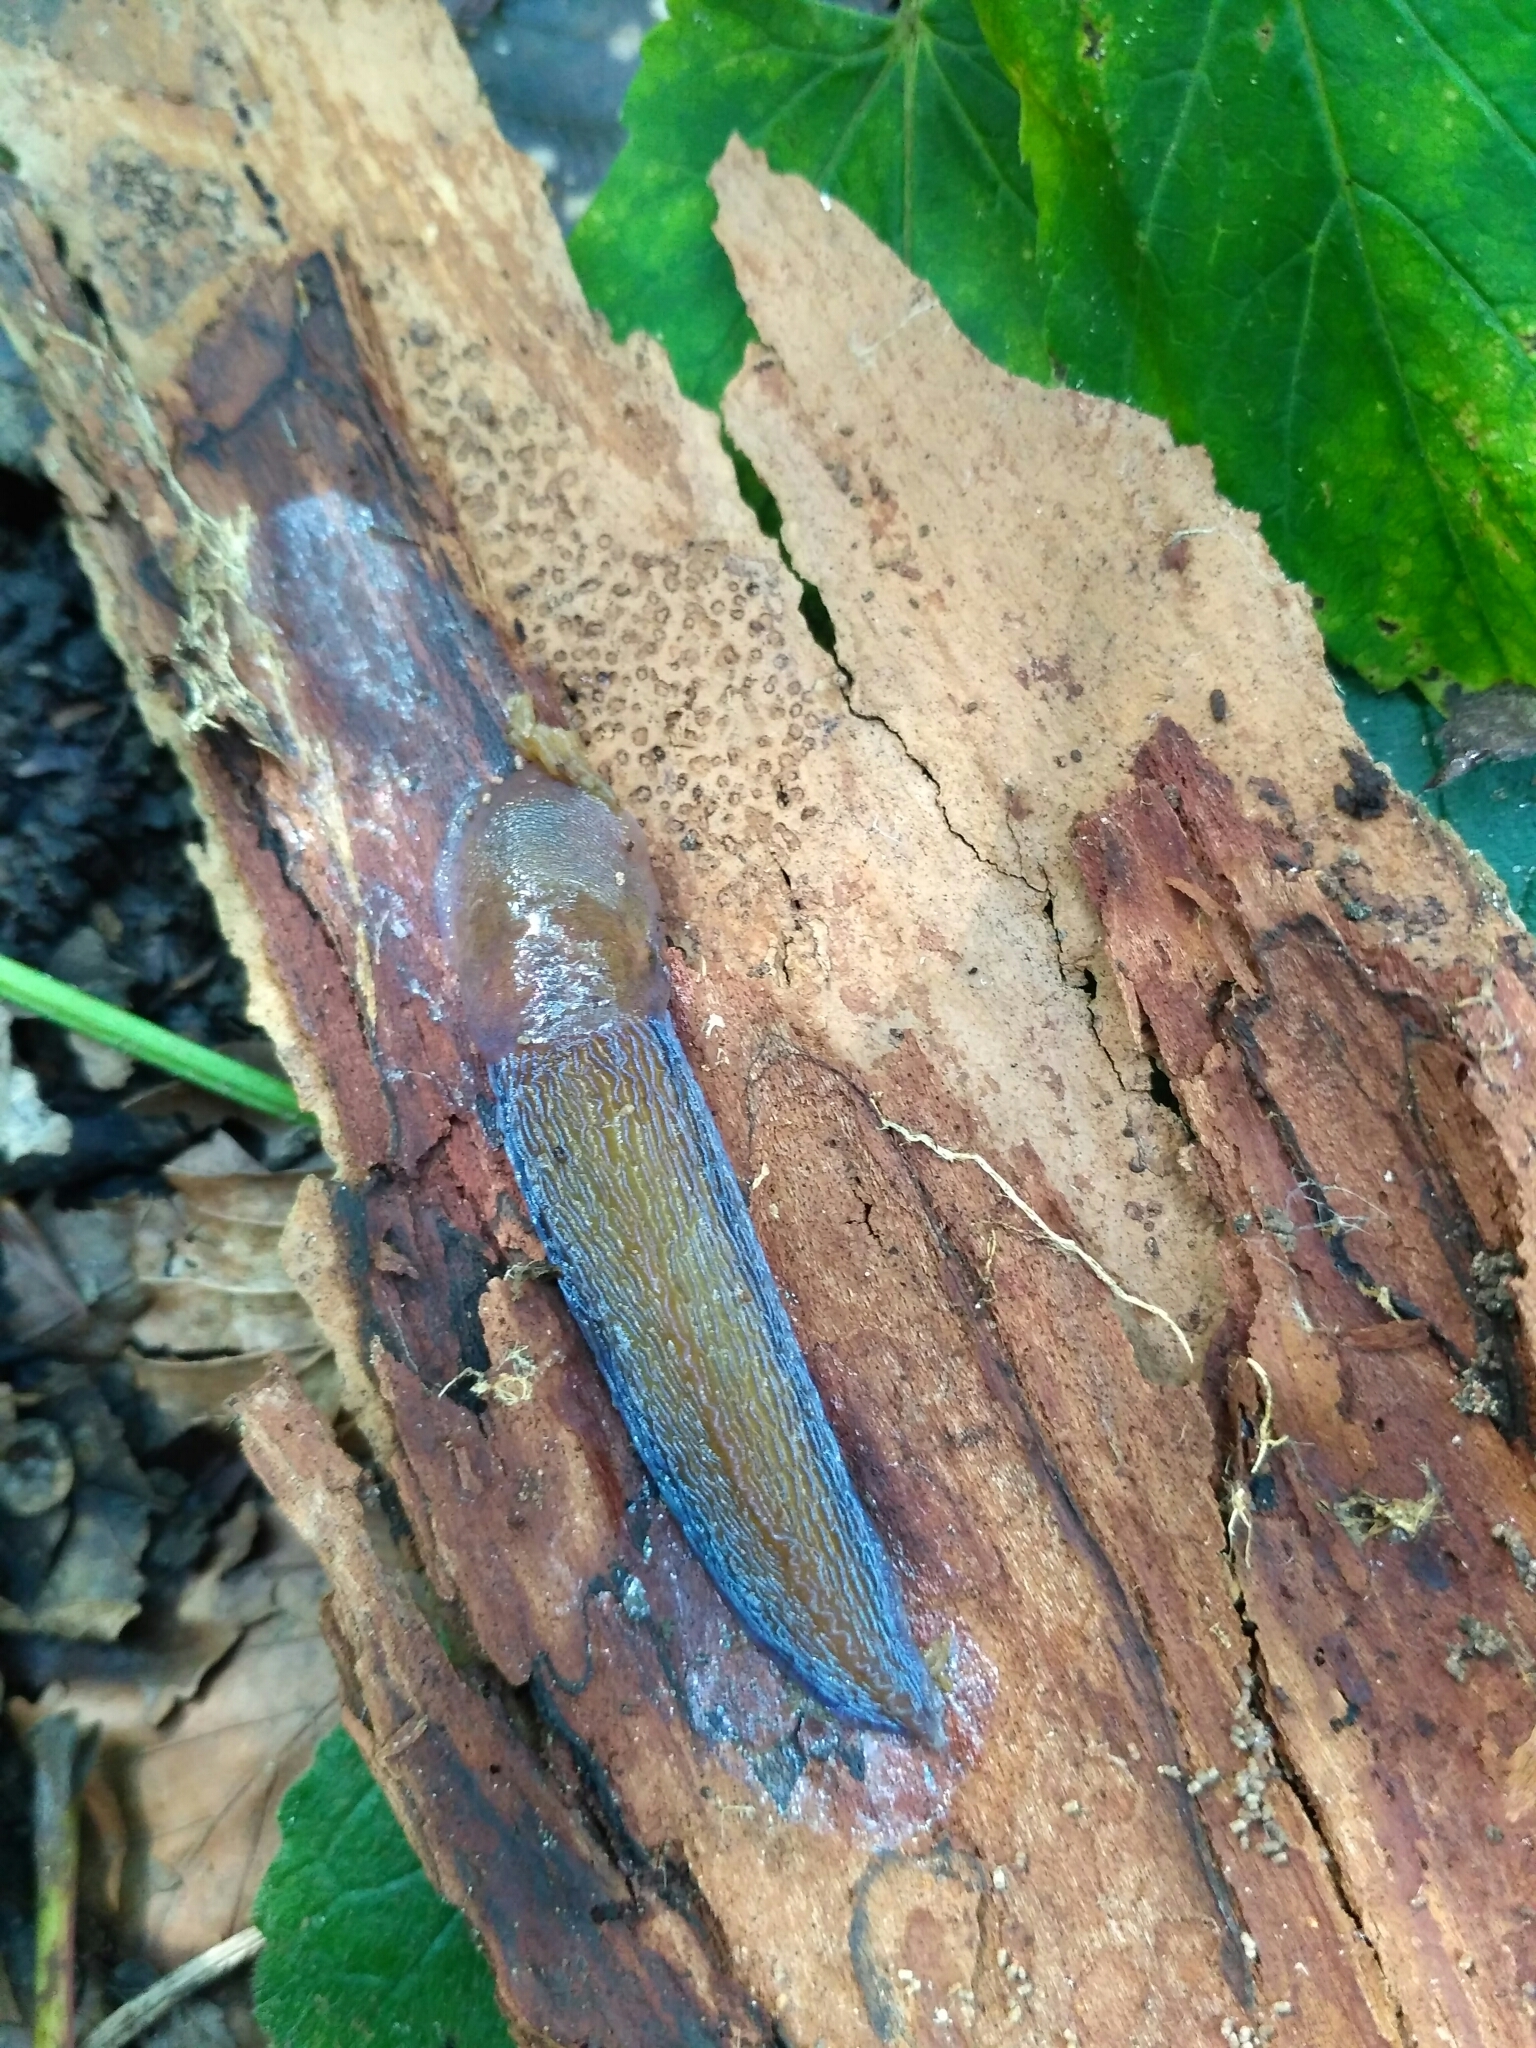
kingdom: Animalia
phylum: Mollusca
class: Gastropoda
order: Stylommatophora
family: Limacidae
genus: Bielzia
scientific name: Bielzia coerulans
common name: Carpathian blue slug
